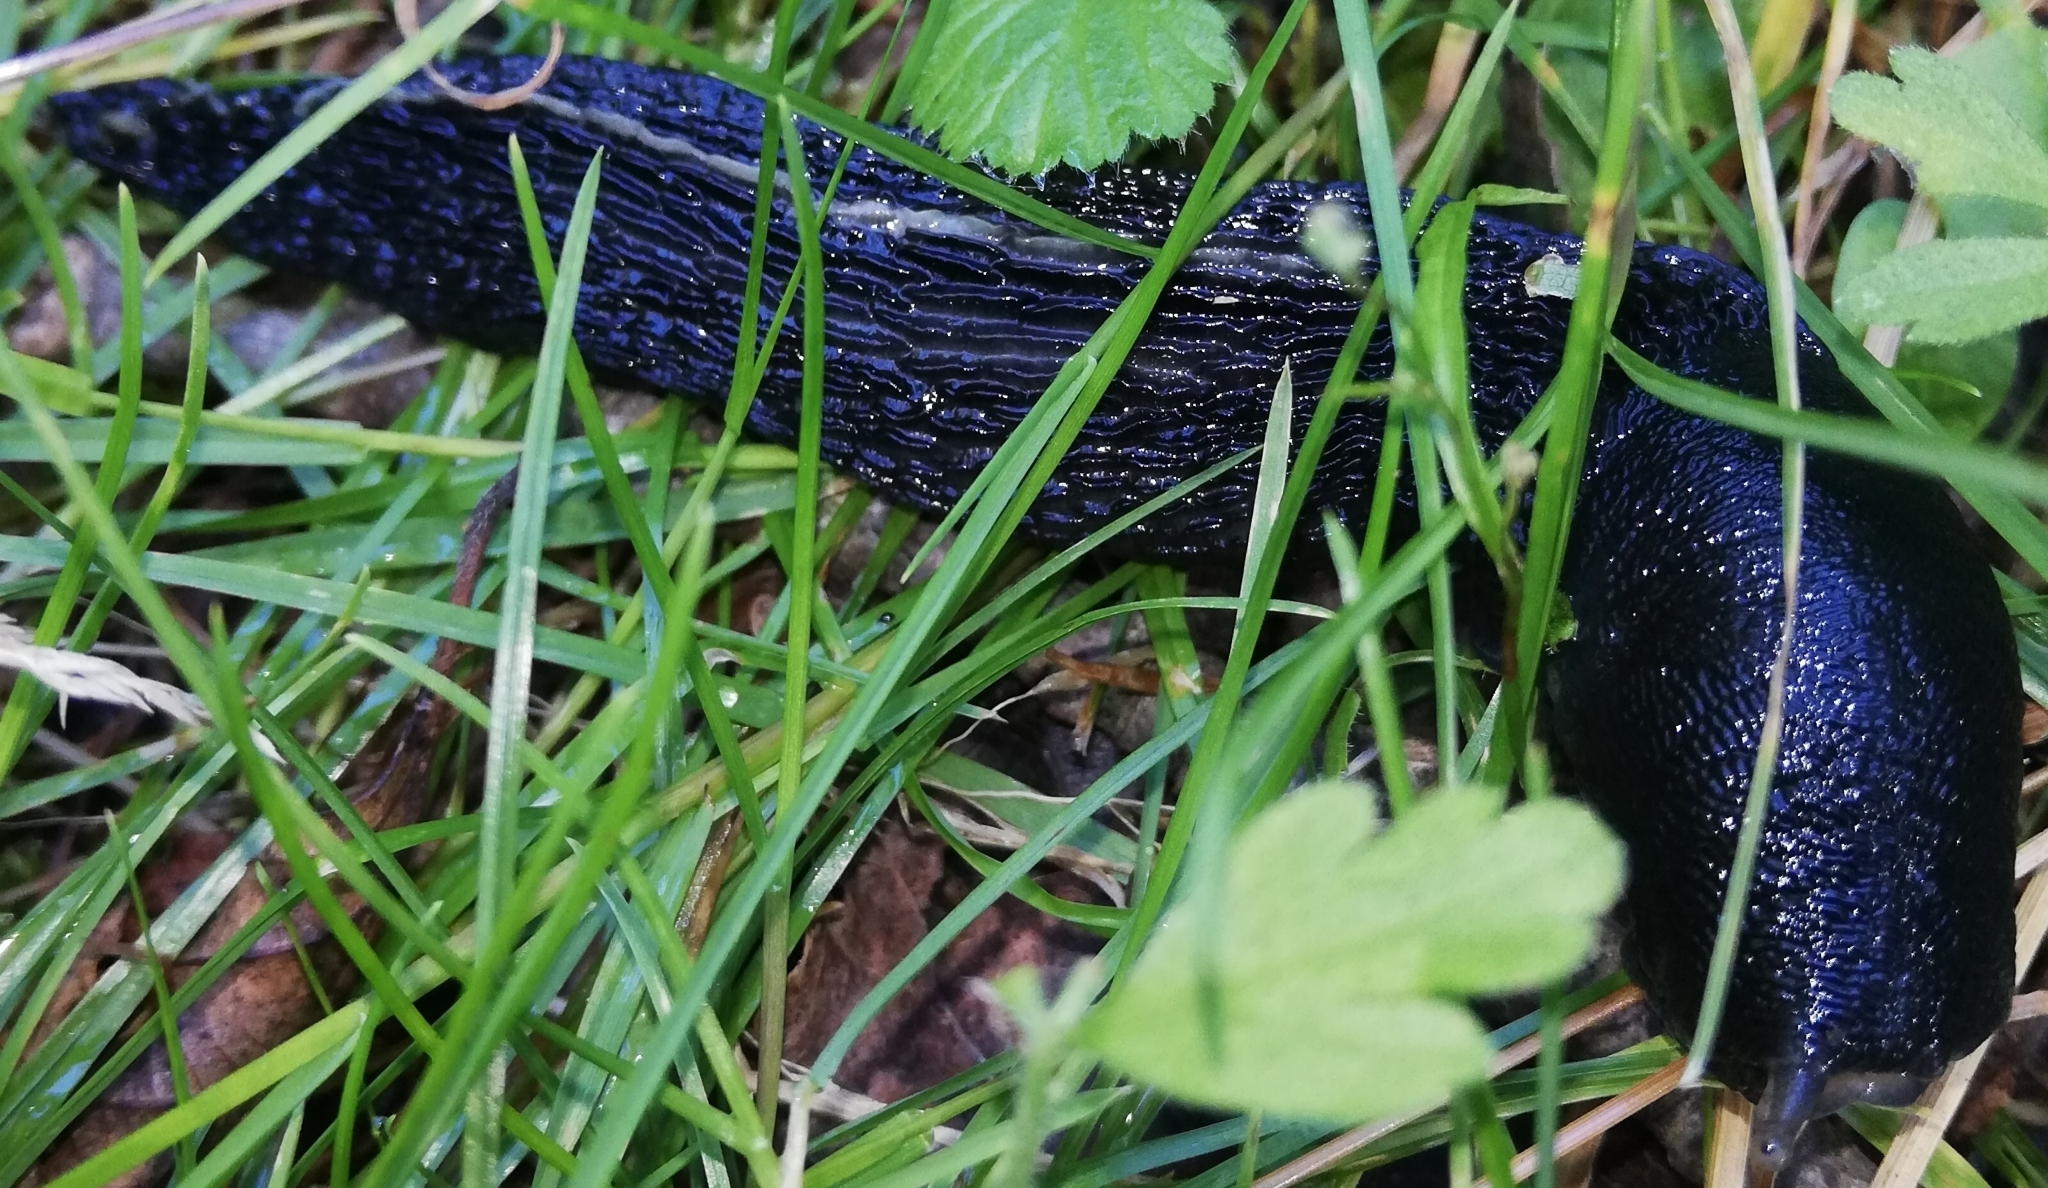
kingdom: Animalia
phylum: Mollusca
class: Gastropoda
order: Stylommatophora
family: Limacidae
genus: Limax
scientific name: Limax cinereoniger
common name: Ash-black slug
